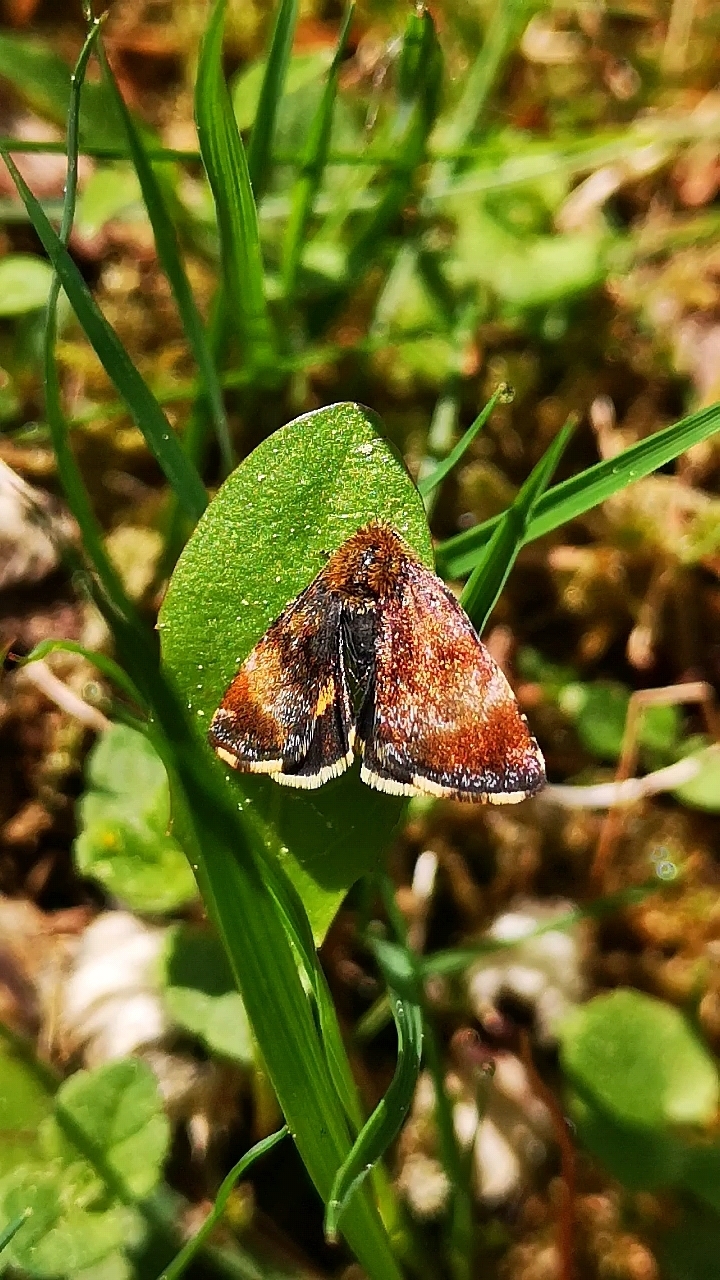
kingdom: Animalia
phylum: Arthropoda
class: Insecta
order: Lepidoptera
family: Noctuidae
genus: Panemeria
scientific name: Panemeria tenebrata
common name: Small yellow underwing
